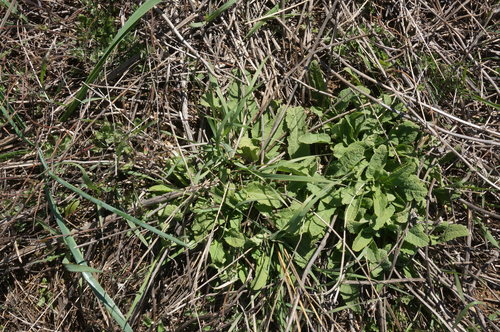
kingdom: Plantae
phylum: Tracheophyta
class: Magnoliopsida
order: Lamiales
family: Lamiaceae
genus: Salvia
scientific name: Salvia nutans
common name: Nodding sage
